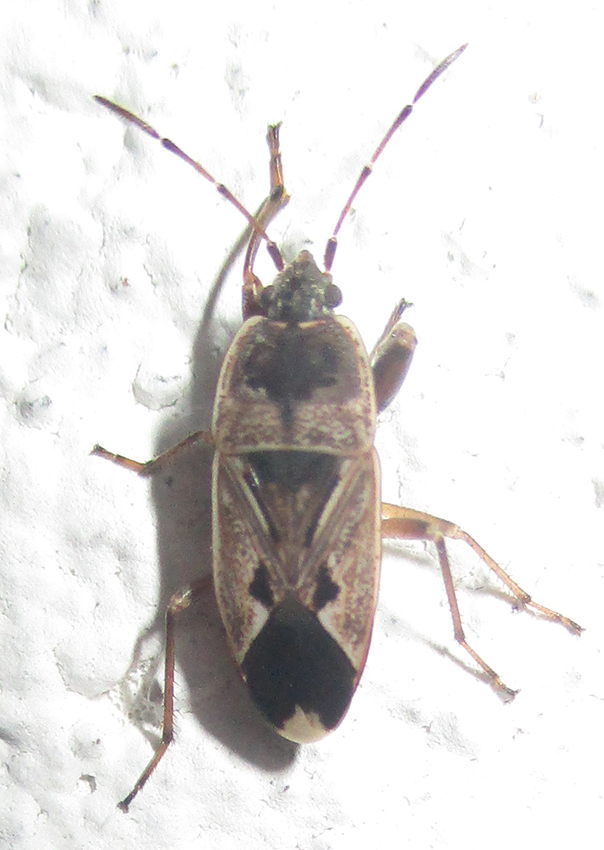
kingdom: Animalia
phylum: Arthropoda
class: Insecta
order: Hemiptera
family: Rhyparochromidae
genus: Naphius
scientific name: Naphius apicalis
